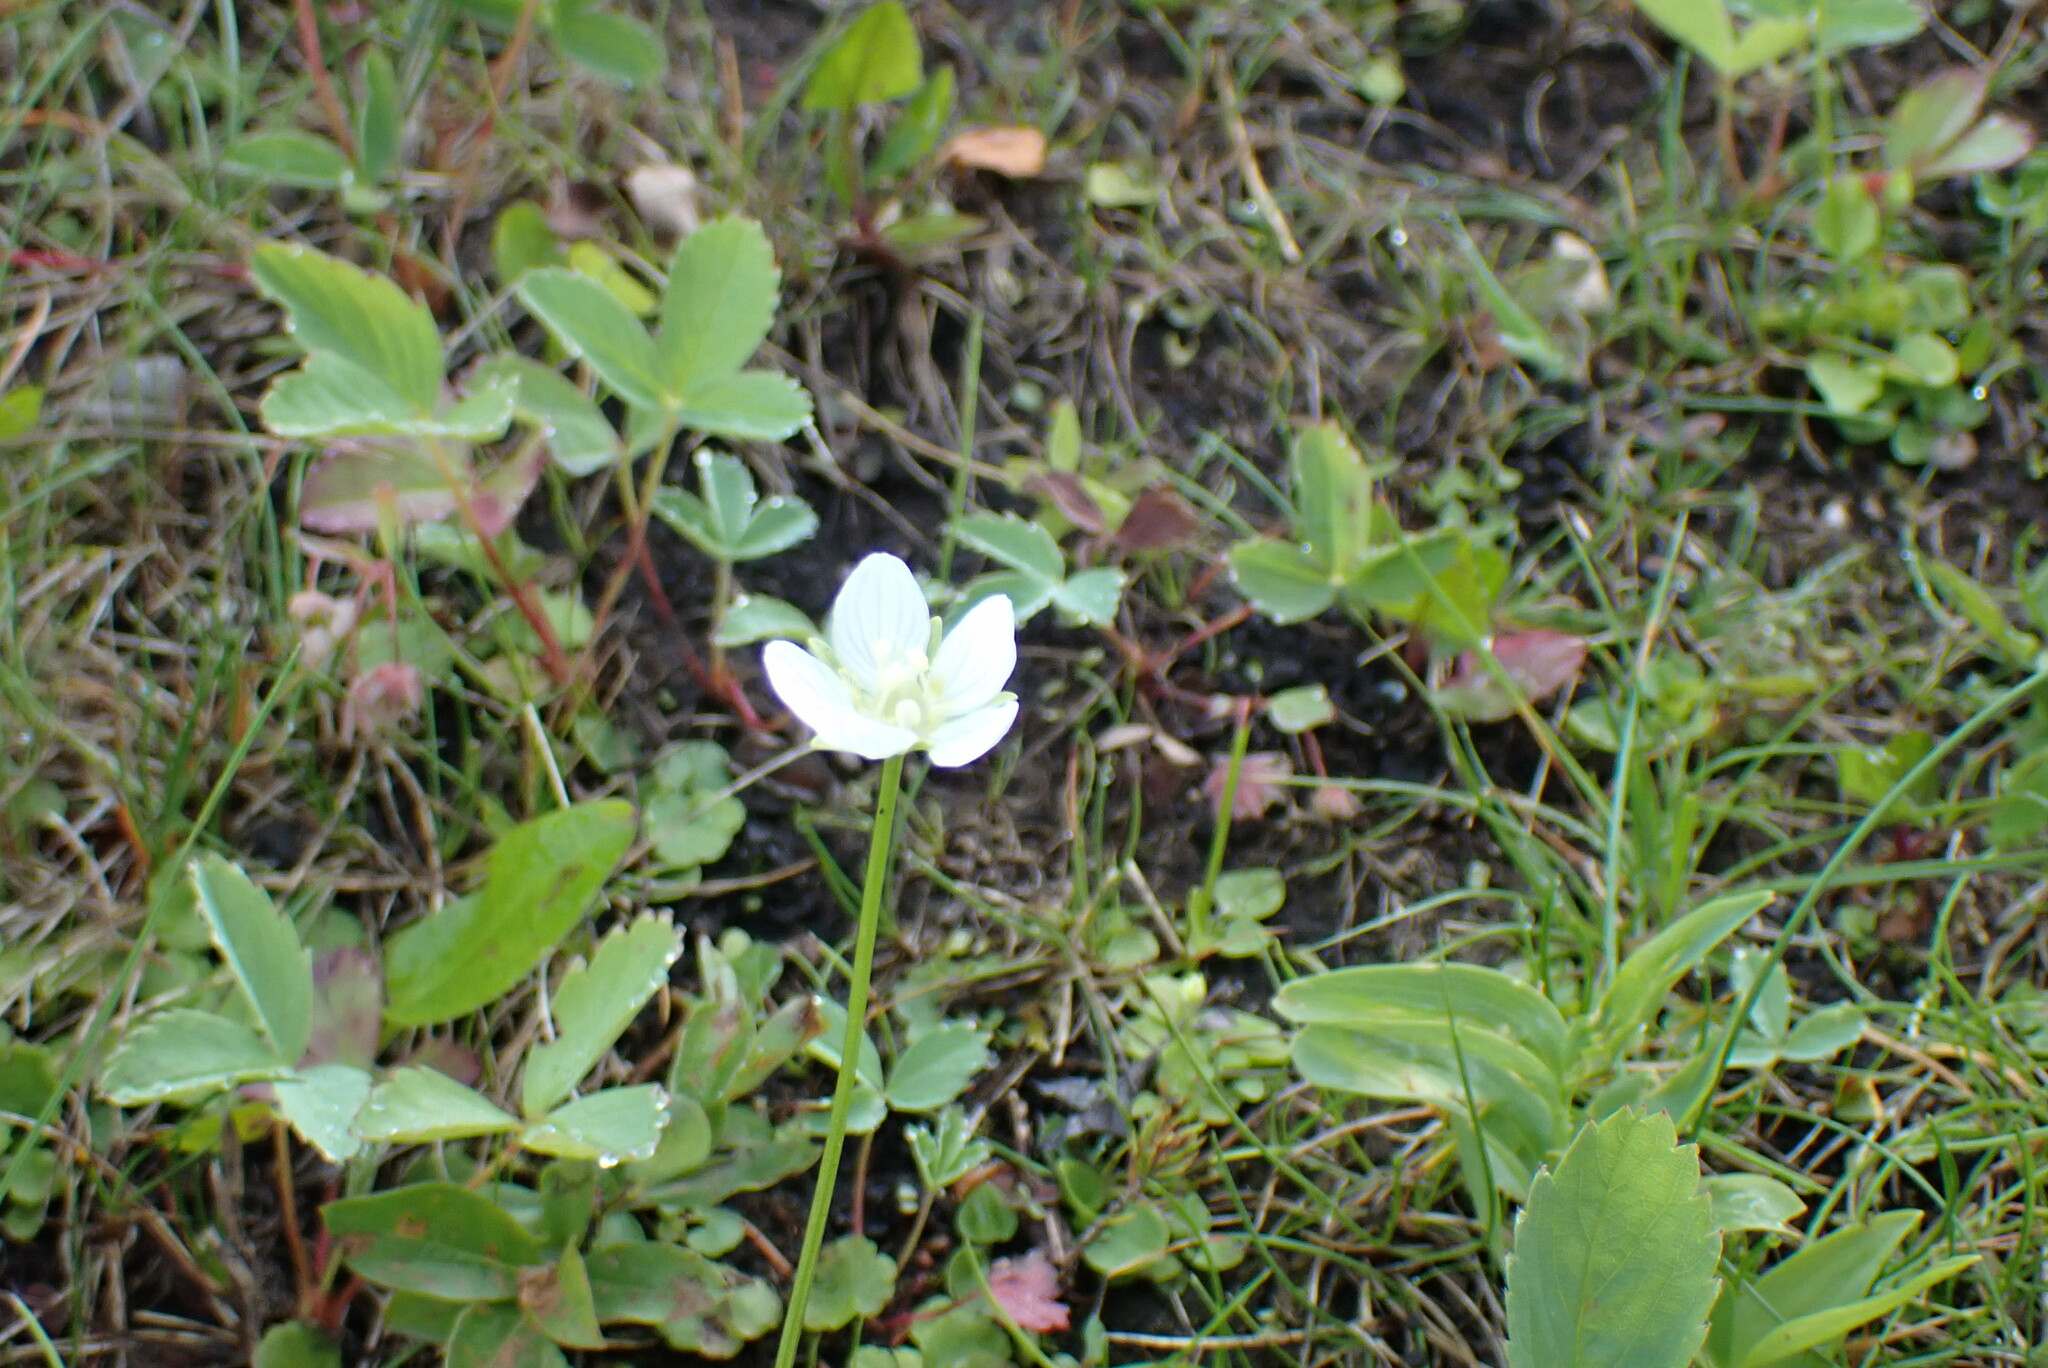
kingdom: Plantae
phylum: Tracheophyta
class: Magnoliopsida
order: Celastrales
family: Parnassiaceae
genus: Parnassia
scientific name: Parnassia palustris
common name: Grass-of-parnassus
